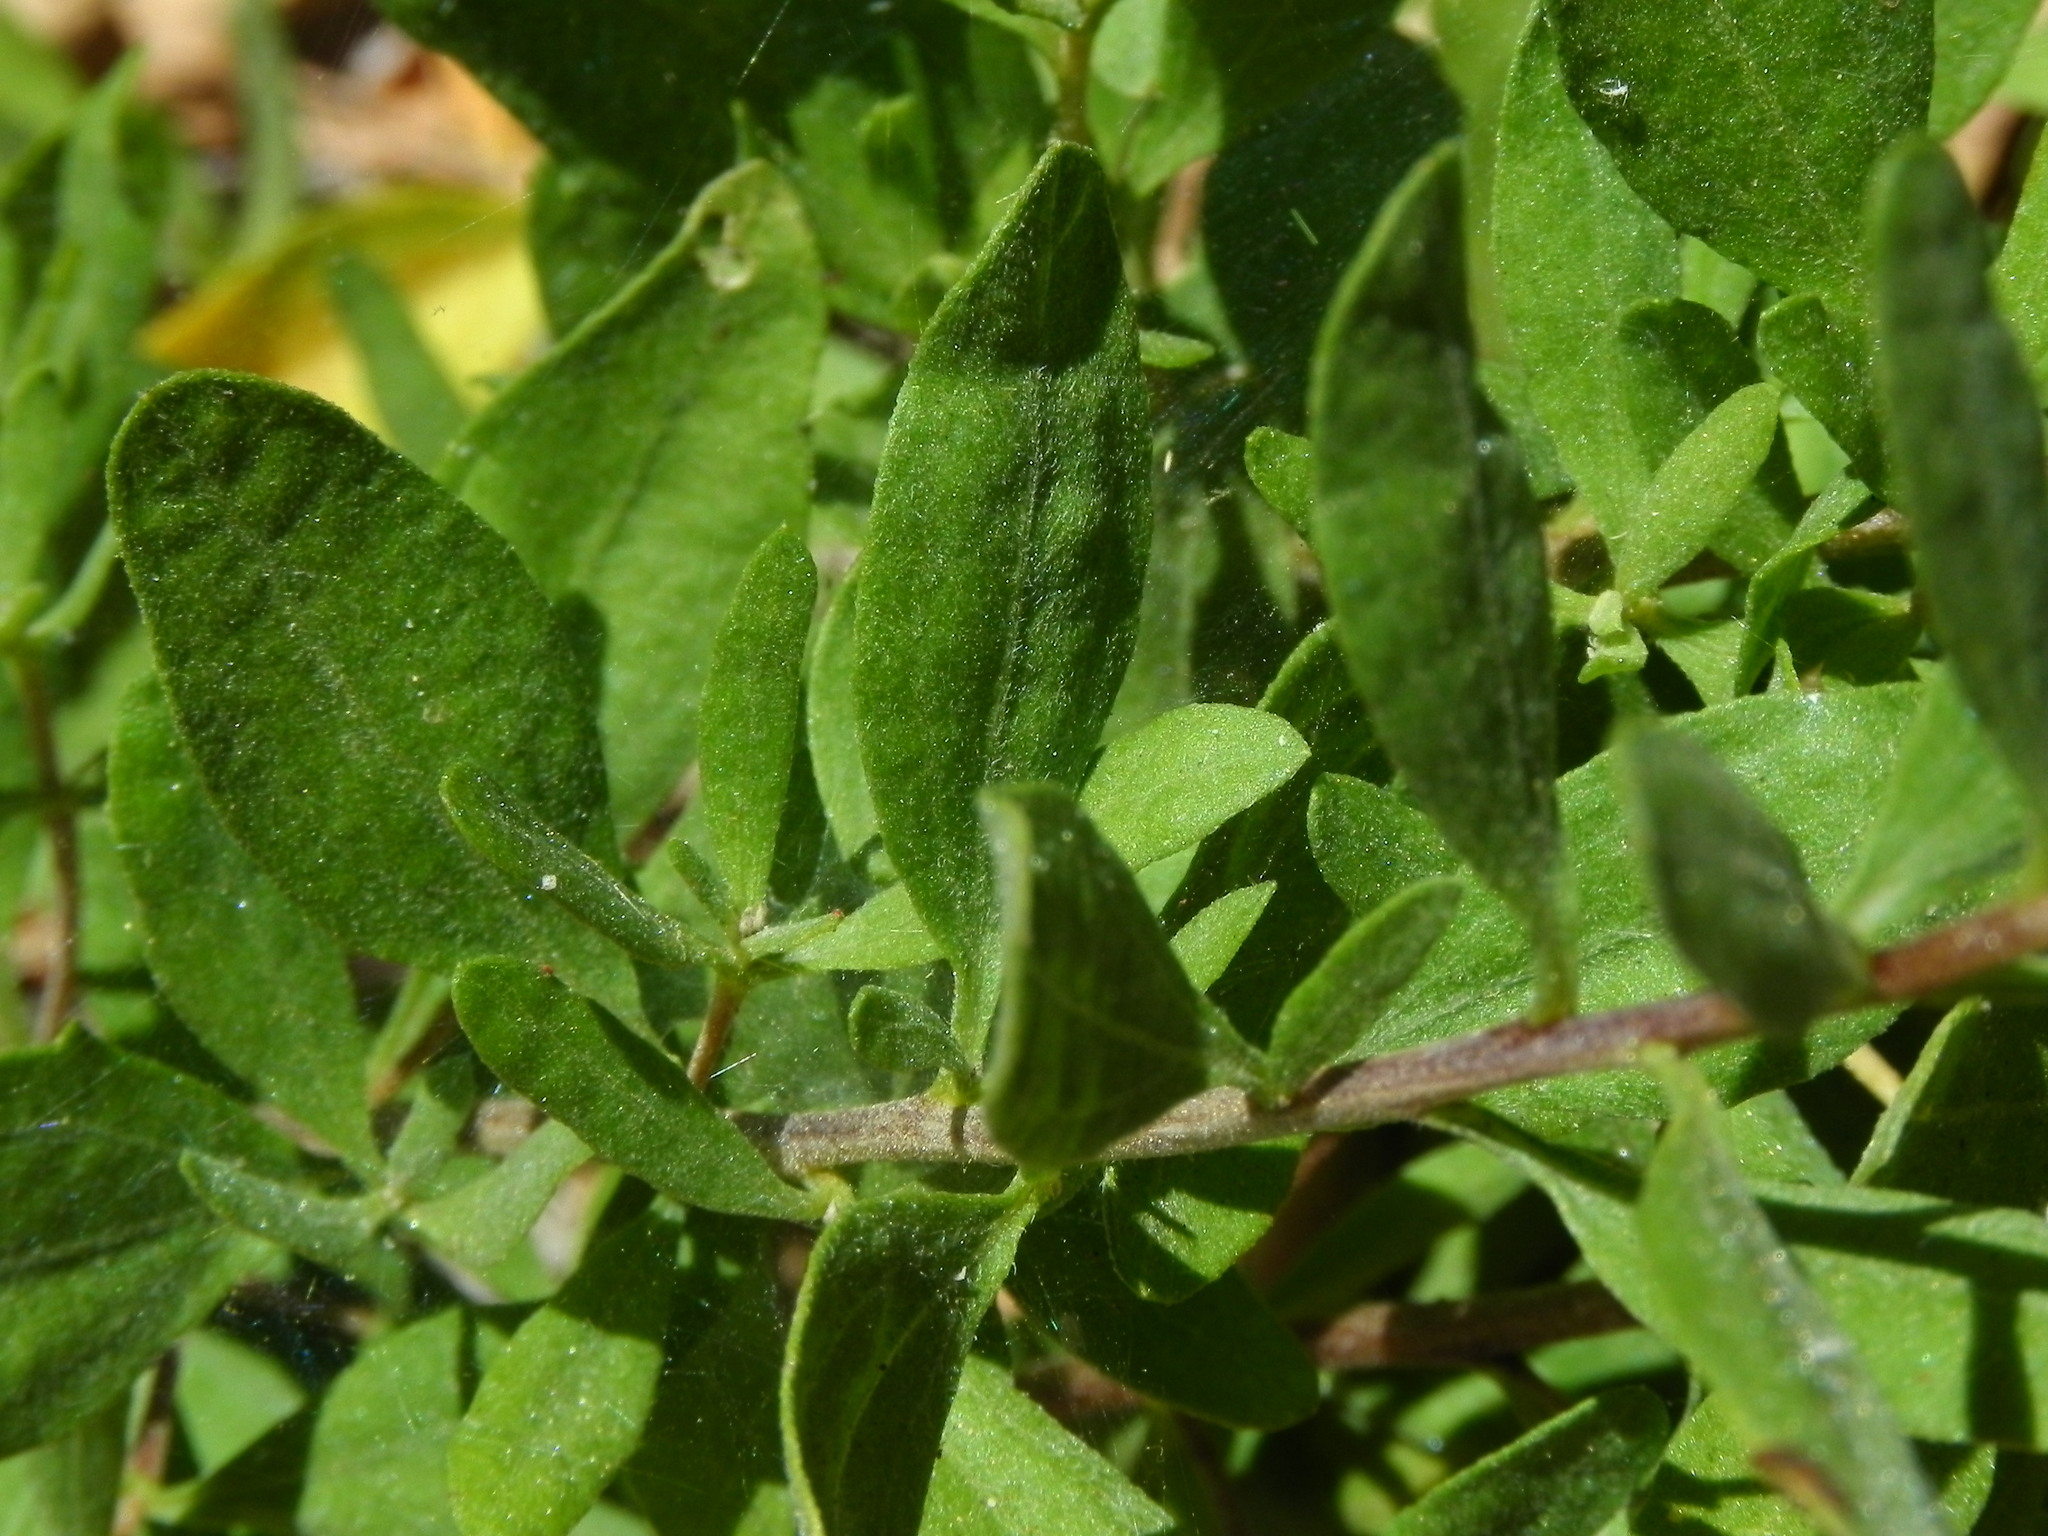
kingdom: Plantae
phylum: Tracheophyta
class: Magnoliopsida
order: Asterales
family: Asteraceae
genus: Iva
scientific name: Iva hayesiana
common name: San diego marsh-elder
